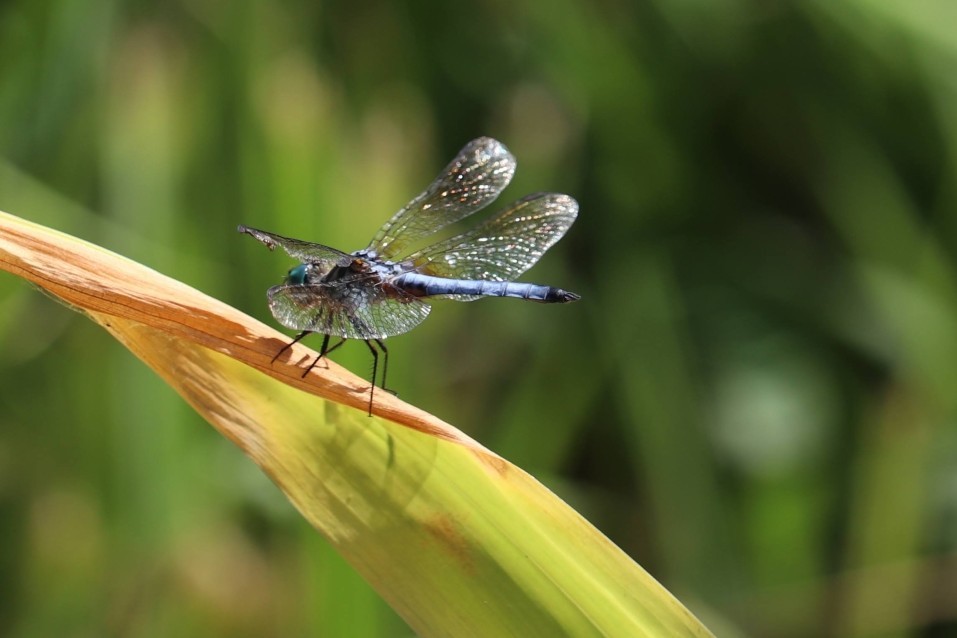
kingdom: Animalia
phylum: Arthropoda
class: Insecta
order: Odonata
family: Libellulidae
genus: Pachydiplax
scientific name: Pachydiplax longipennis
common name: Blue dasher
